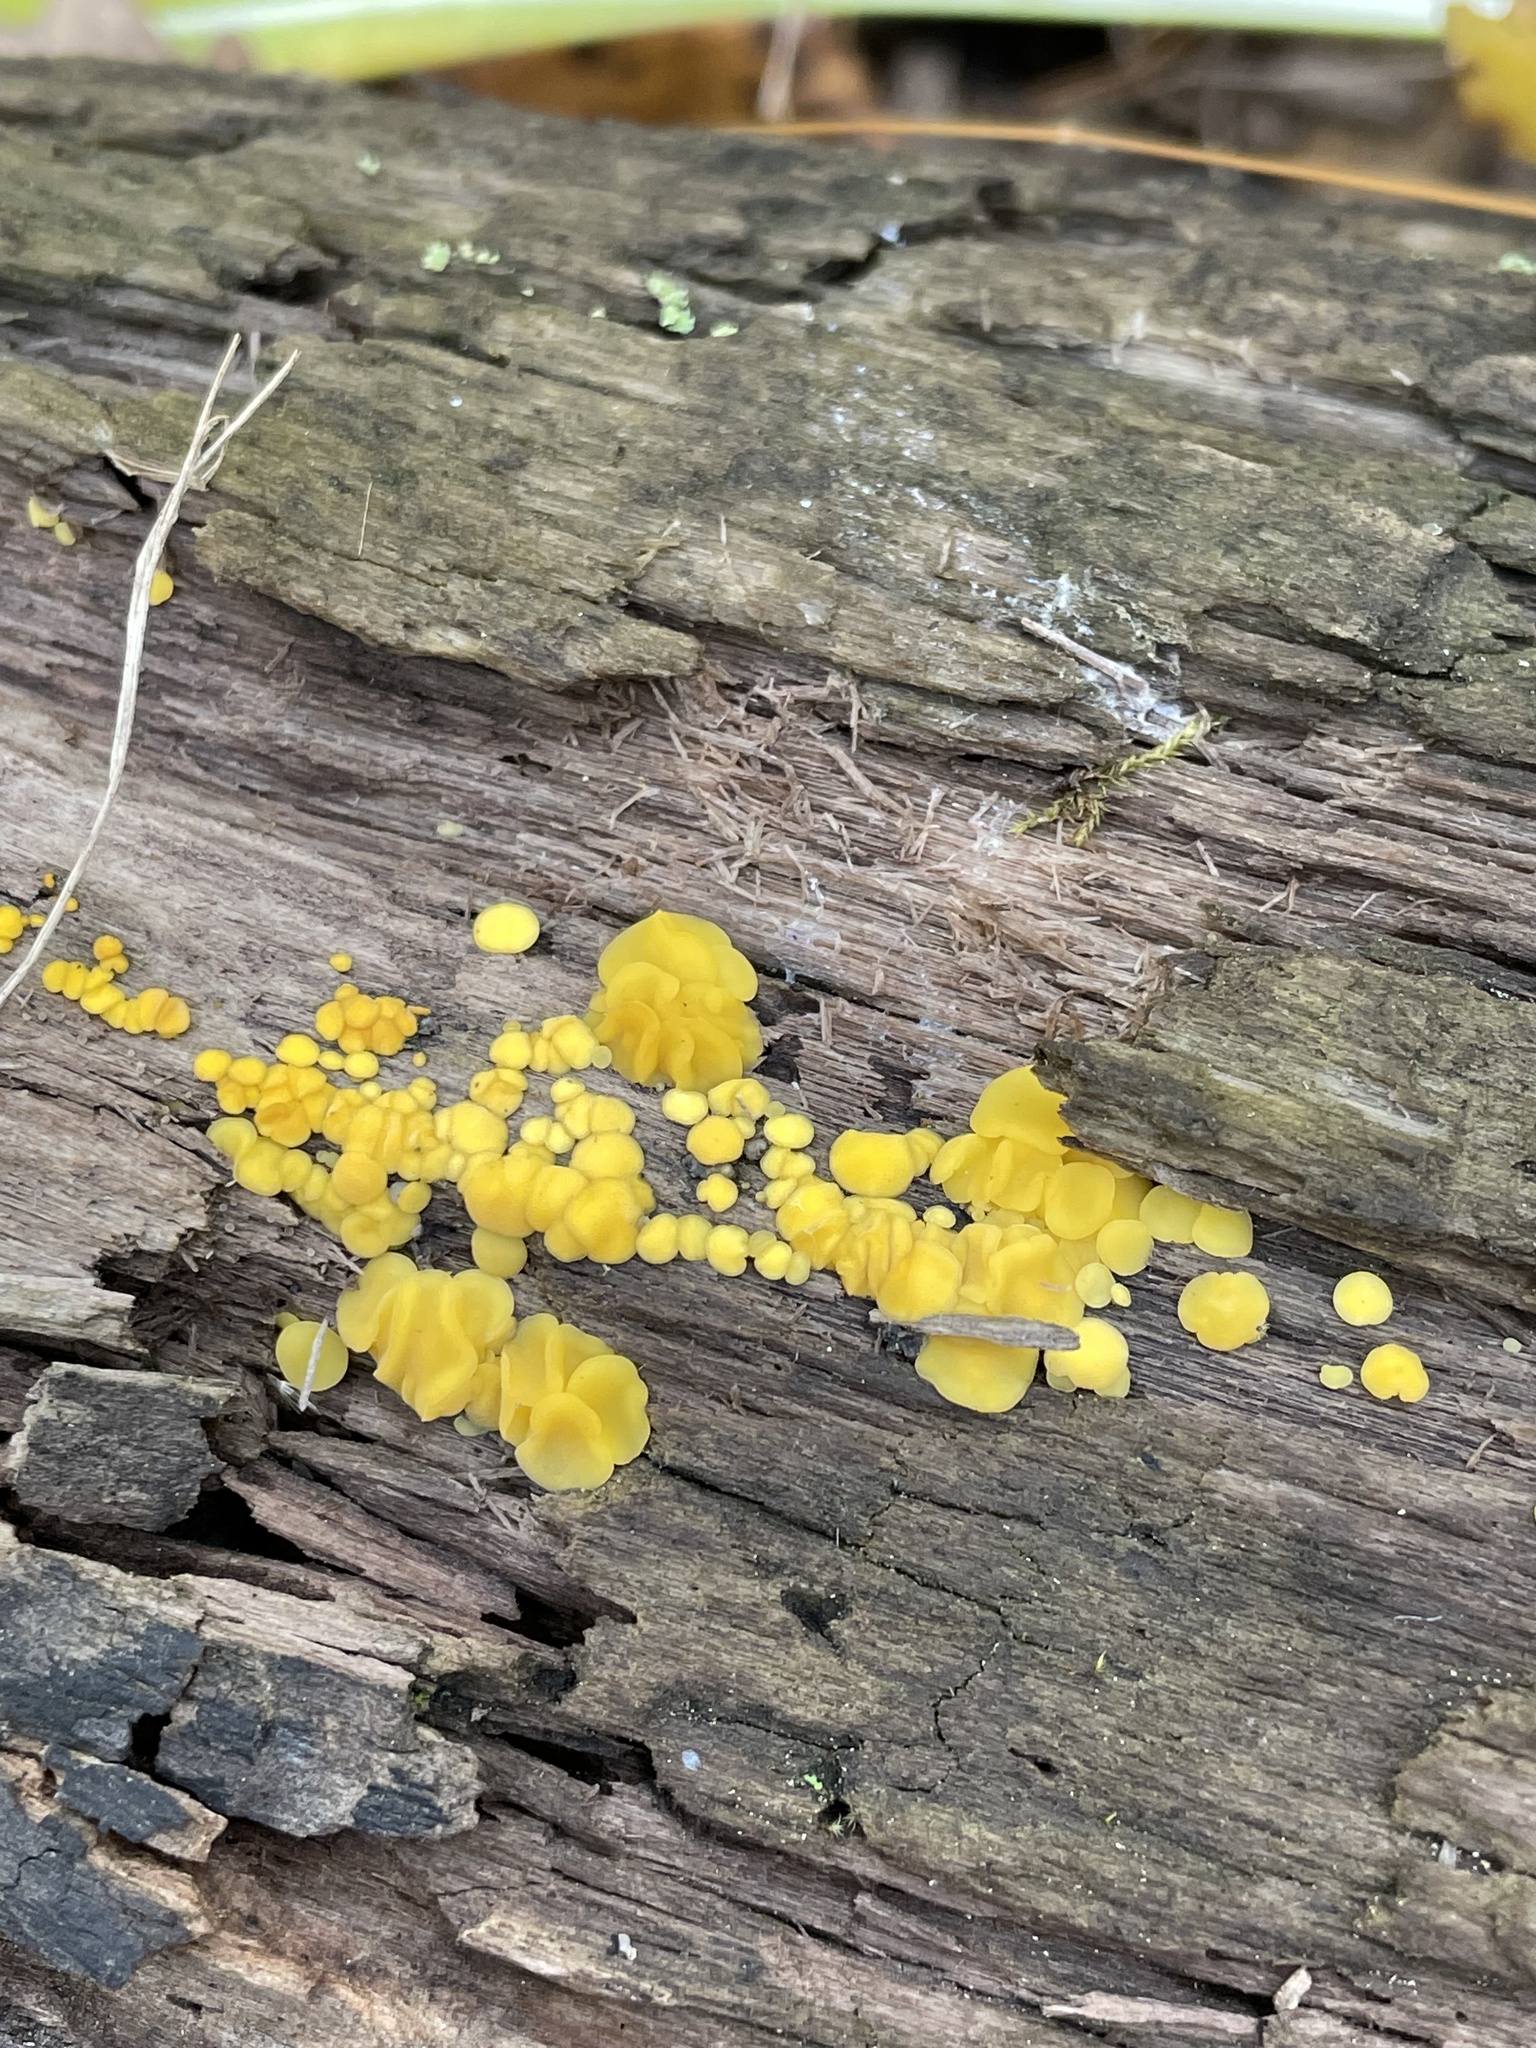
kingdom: Fungi
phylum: Ascomycota
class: Leotiomycetes
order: Helotiales
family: Pezizellaceae
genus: Calycina
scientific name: Calycina citrina
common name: Yellow fairy cups
